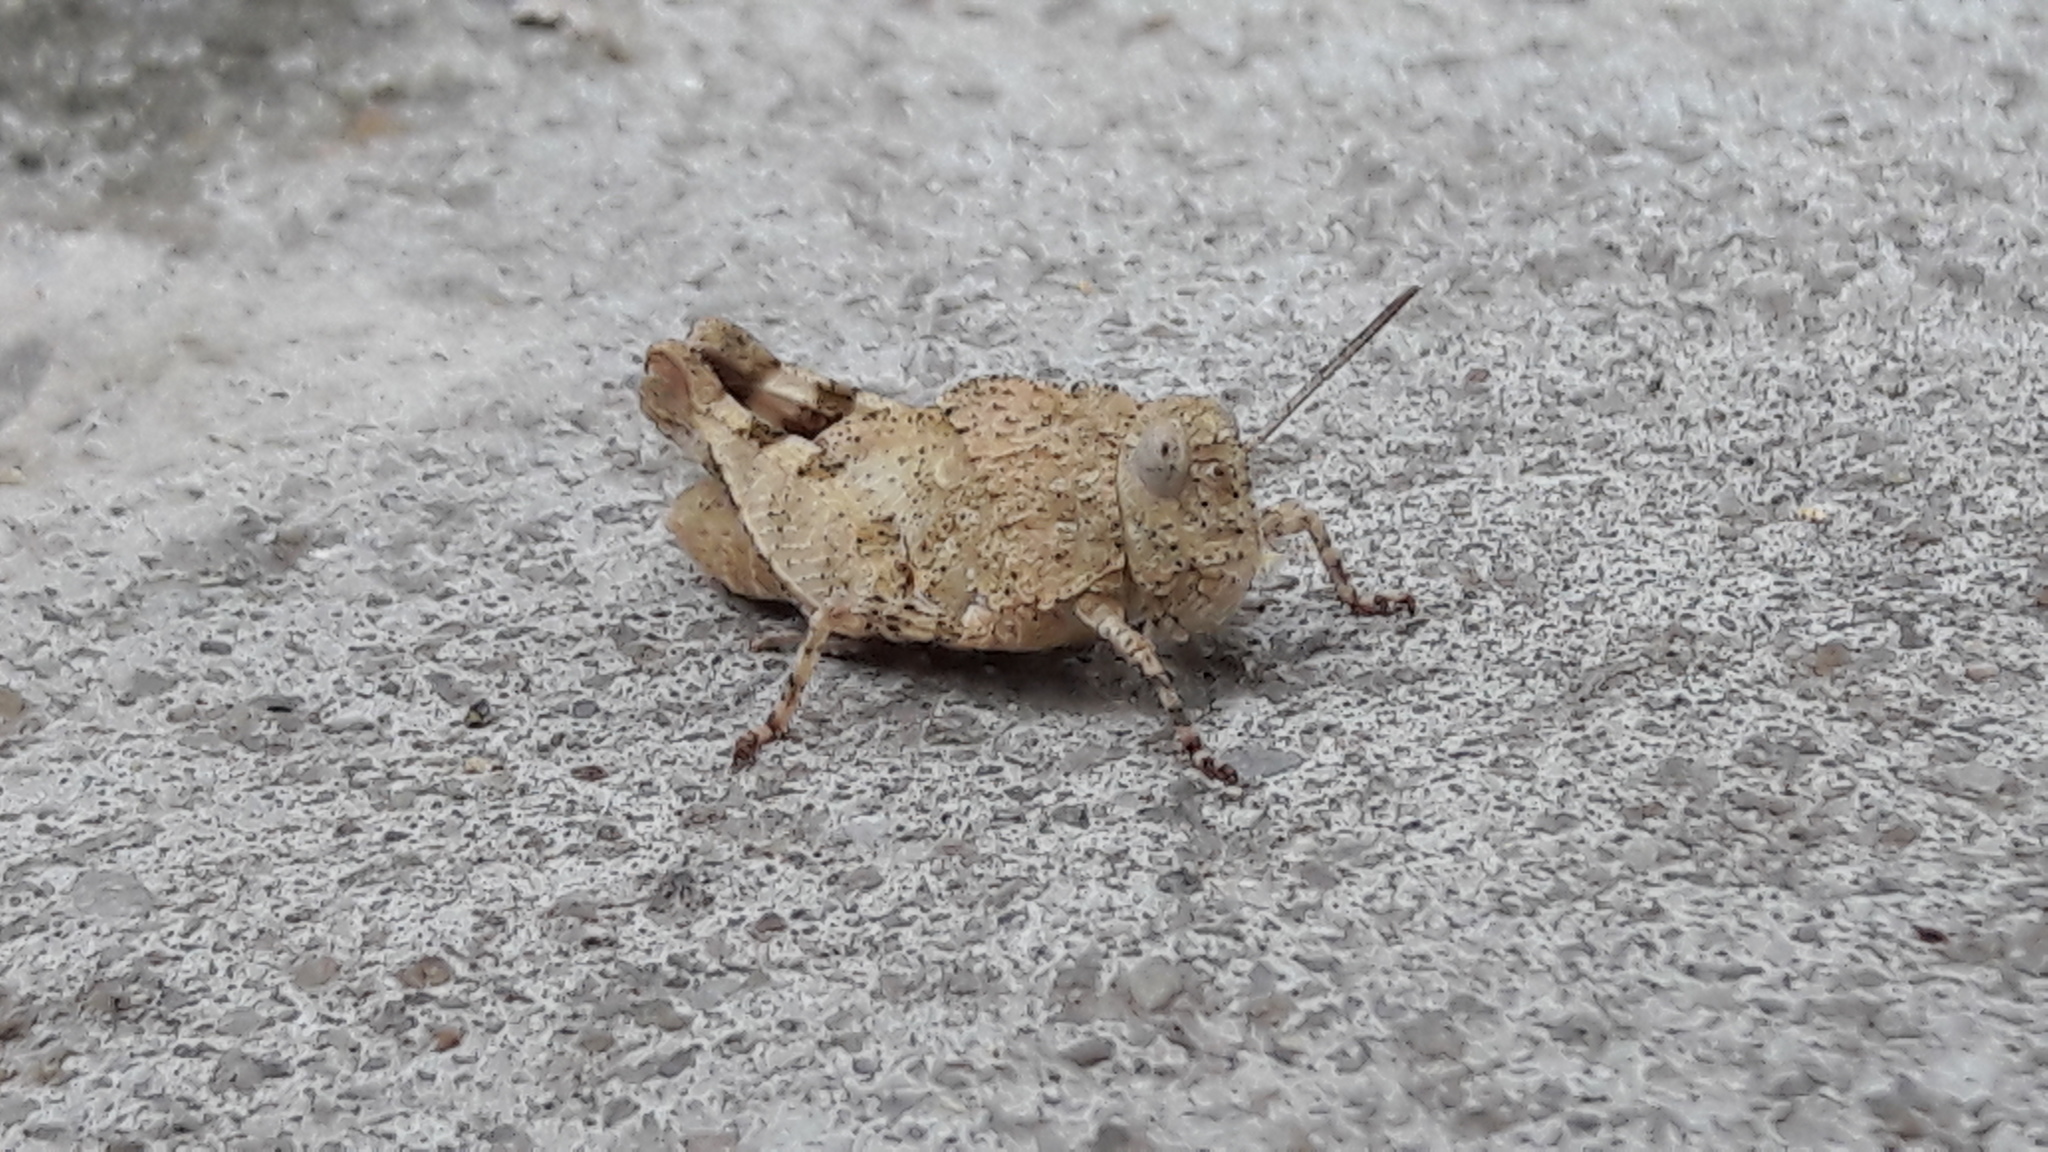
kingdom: Animalia
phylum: Arthropoda
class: Insecta
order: Orthoptera
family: Acrididae
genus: Oedipoda
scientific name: Oedipoda caerulescens
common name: Blue-winged grasshopper
